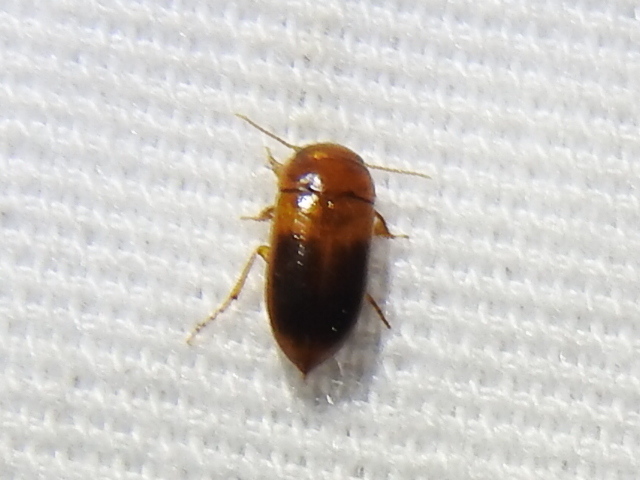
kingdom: Animalia
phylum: Arthropoda
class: Insecta
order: Coleoptera
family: Dytiscidae
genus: Celina
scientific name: Celina hubbelli
